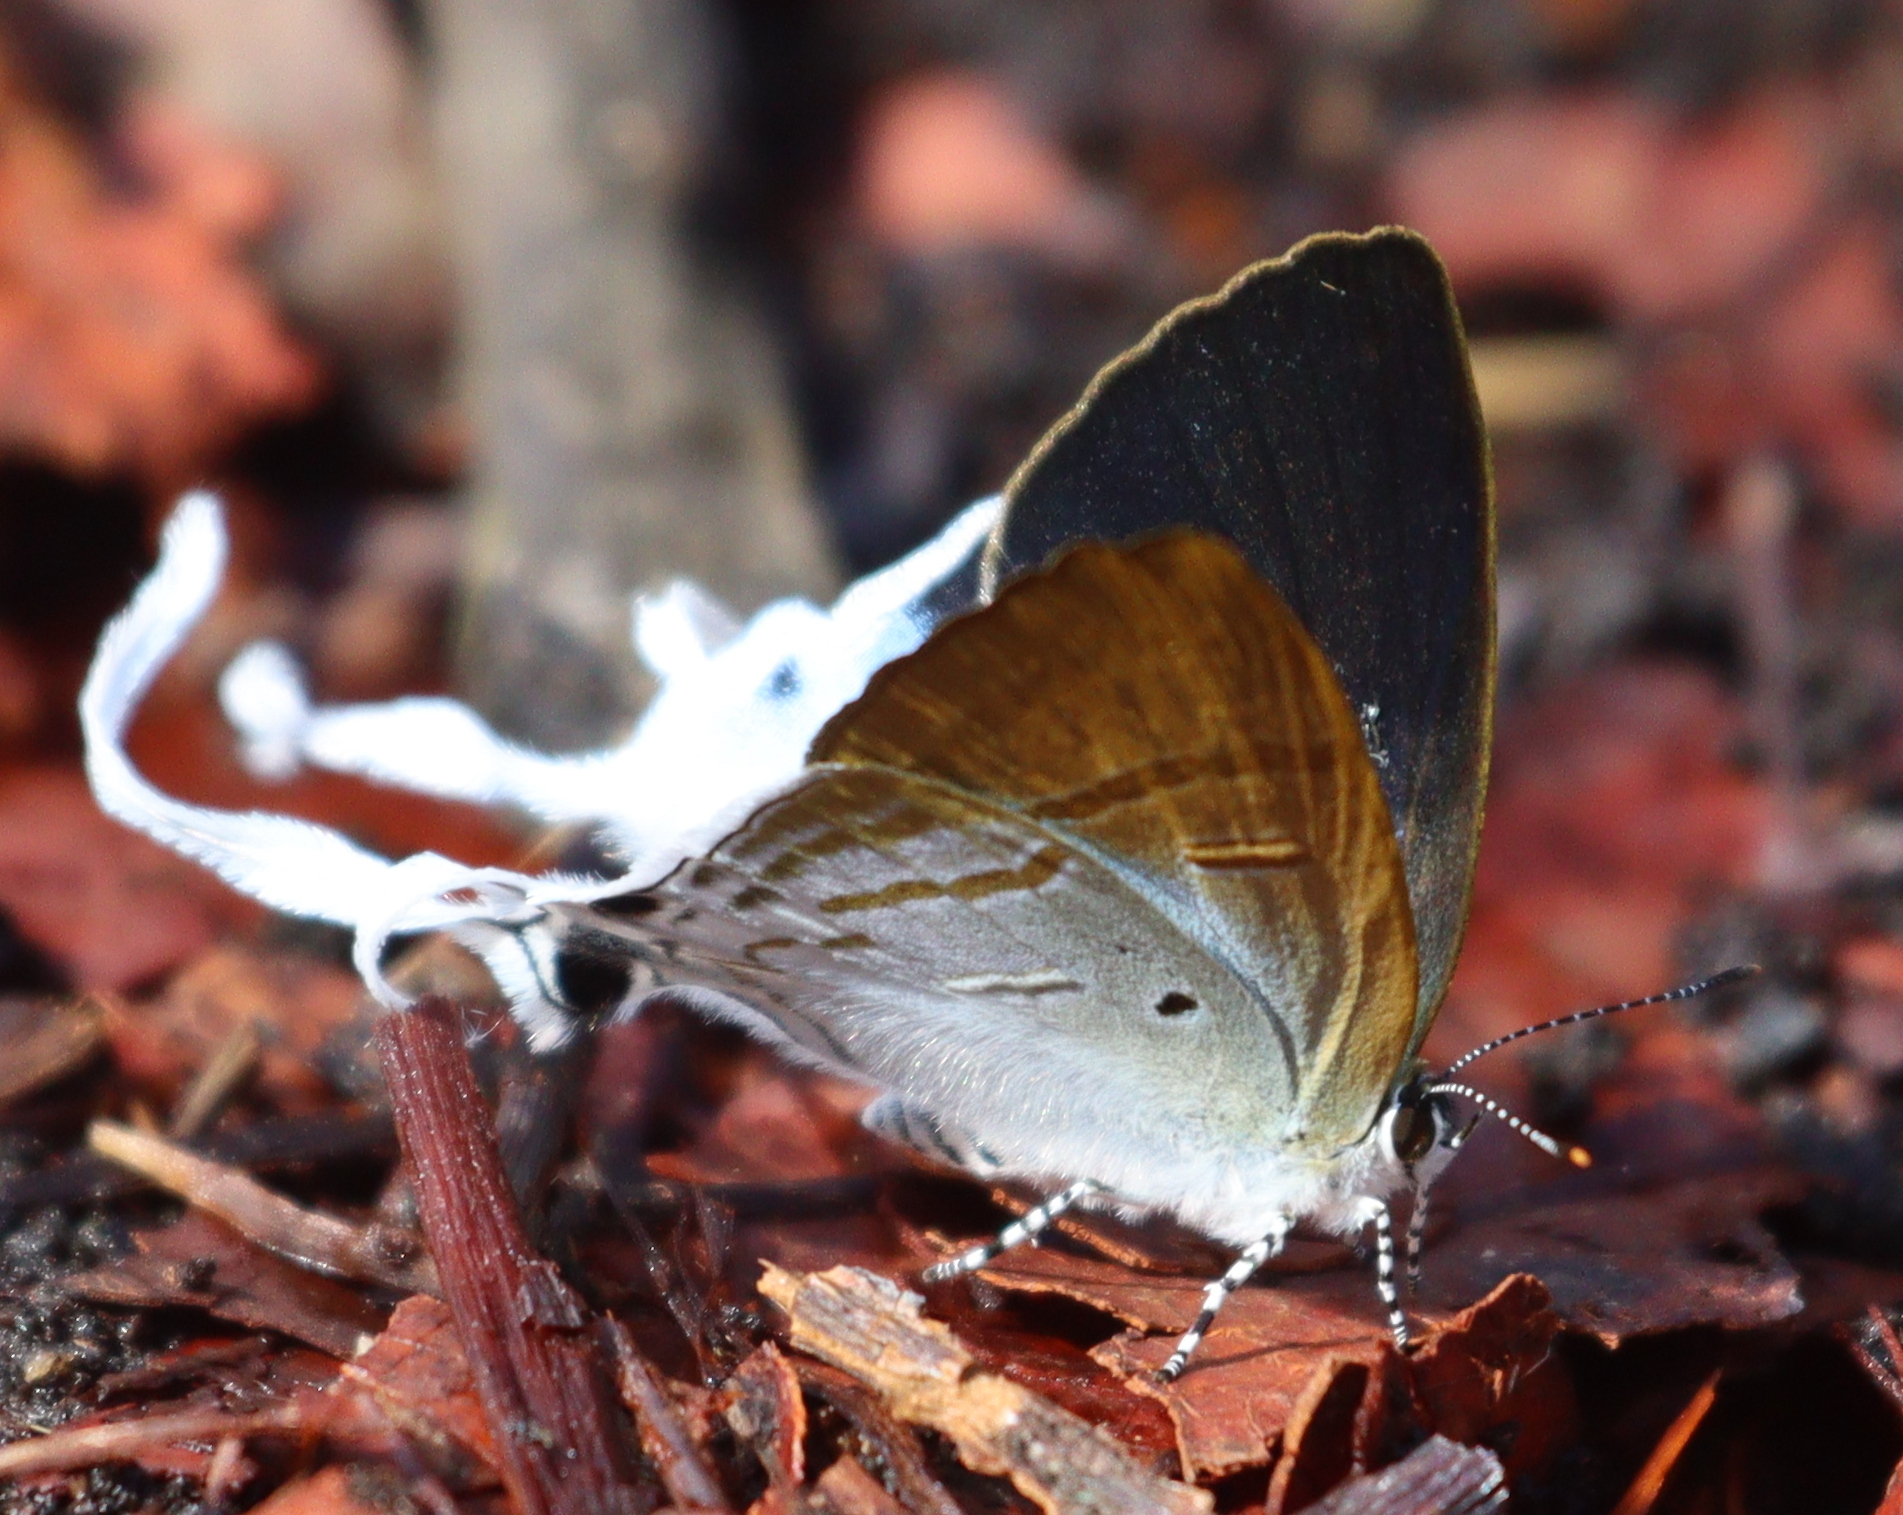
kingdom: Animalia
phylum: Arthropoda
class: Insecta
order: Lepidoptera
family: Lycaenidae
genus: Zeltus
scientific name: Zeltus amasa
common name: Fluffy tit
